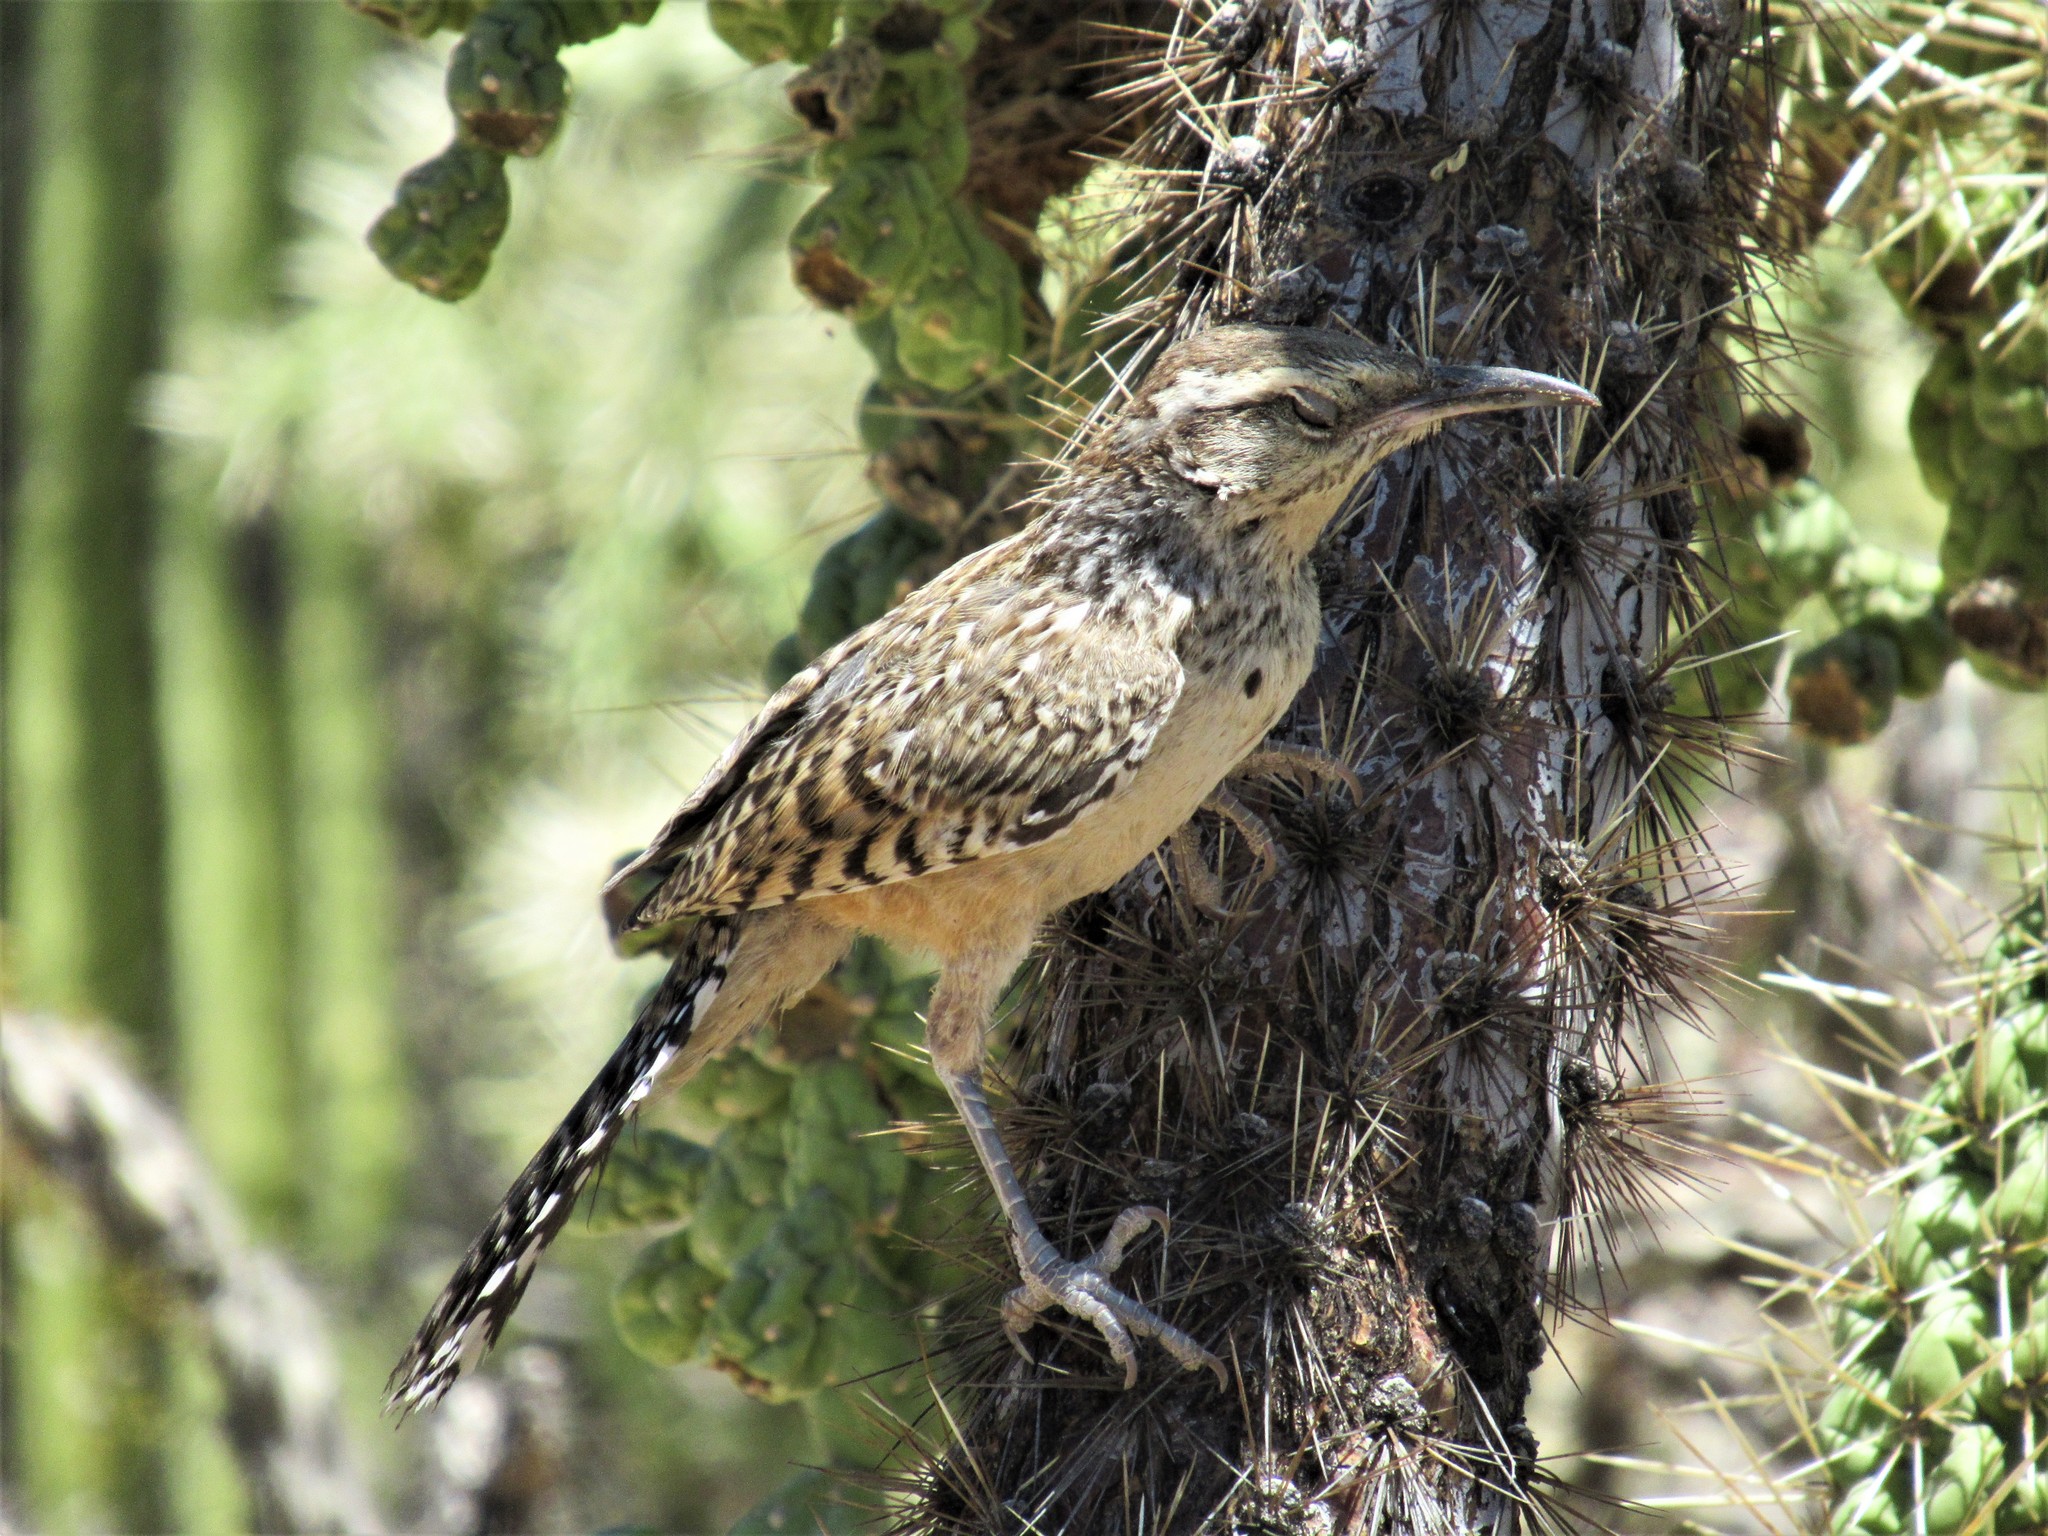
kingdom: Animalia
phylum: Chordata
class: Aves
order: Passeriformes
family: Troglodytidae
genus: Campylorhynchus
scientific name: Campylorhynchus brunneicapillus
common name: Cactus wren
